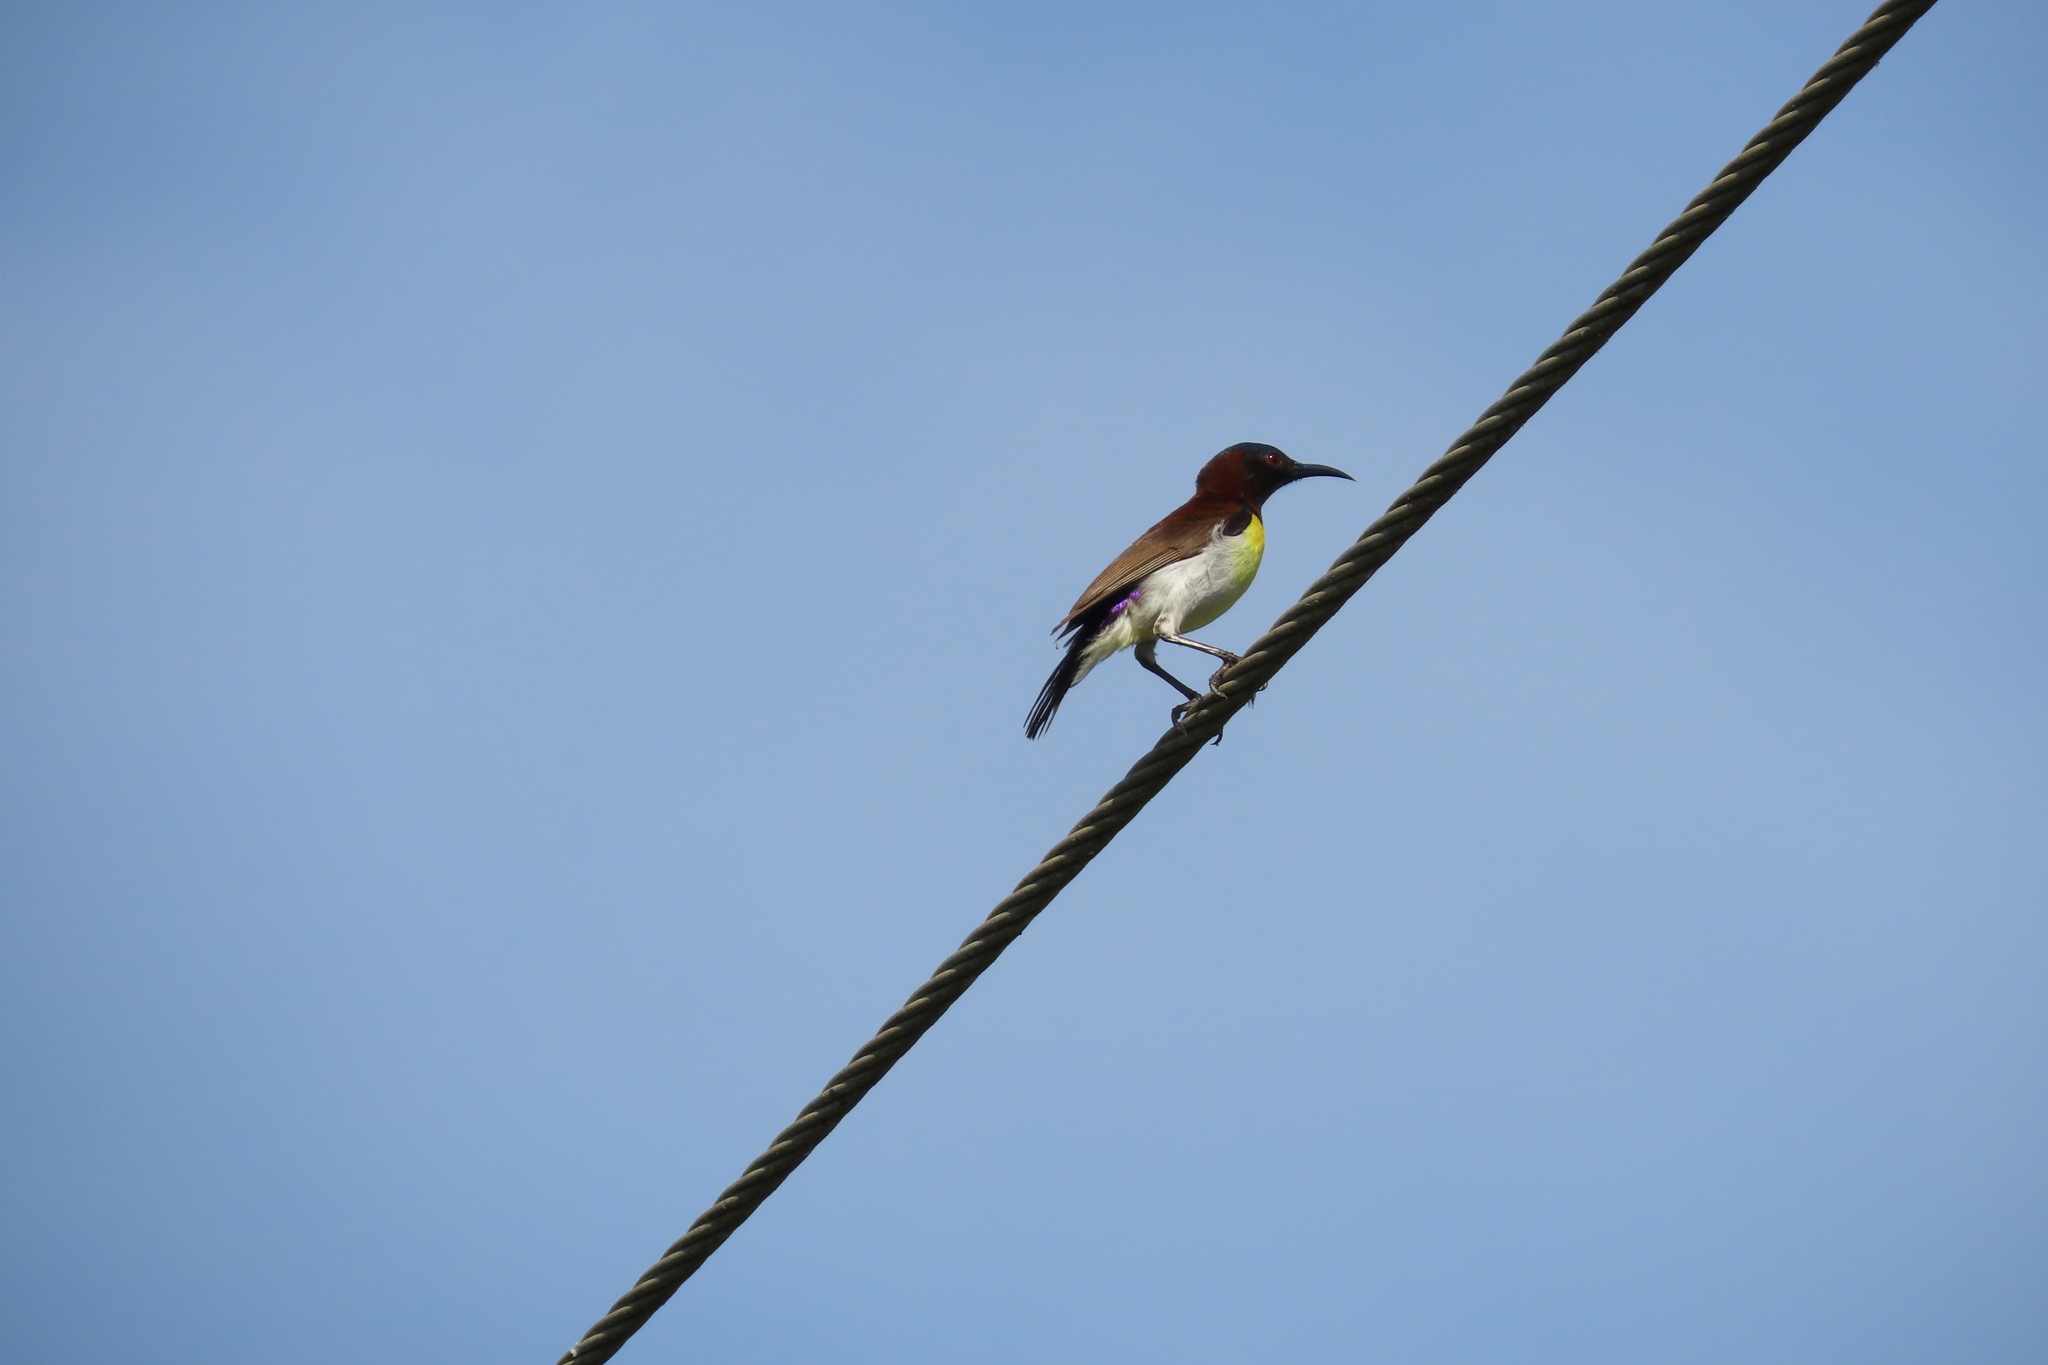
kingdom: Animalia
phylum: Chordata
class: Aves
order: Passeriformes
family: Nectariniidae
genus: Leptocoma
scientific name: Leptocoma zeylonica
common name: Purple-rumped sunbird
